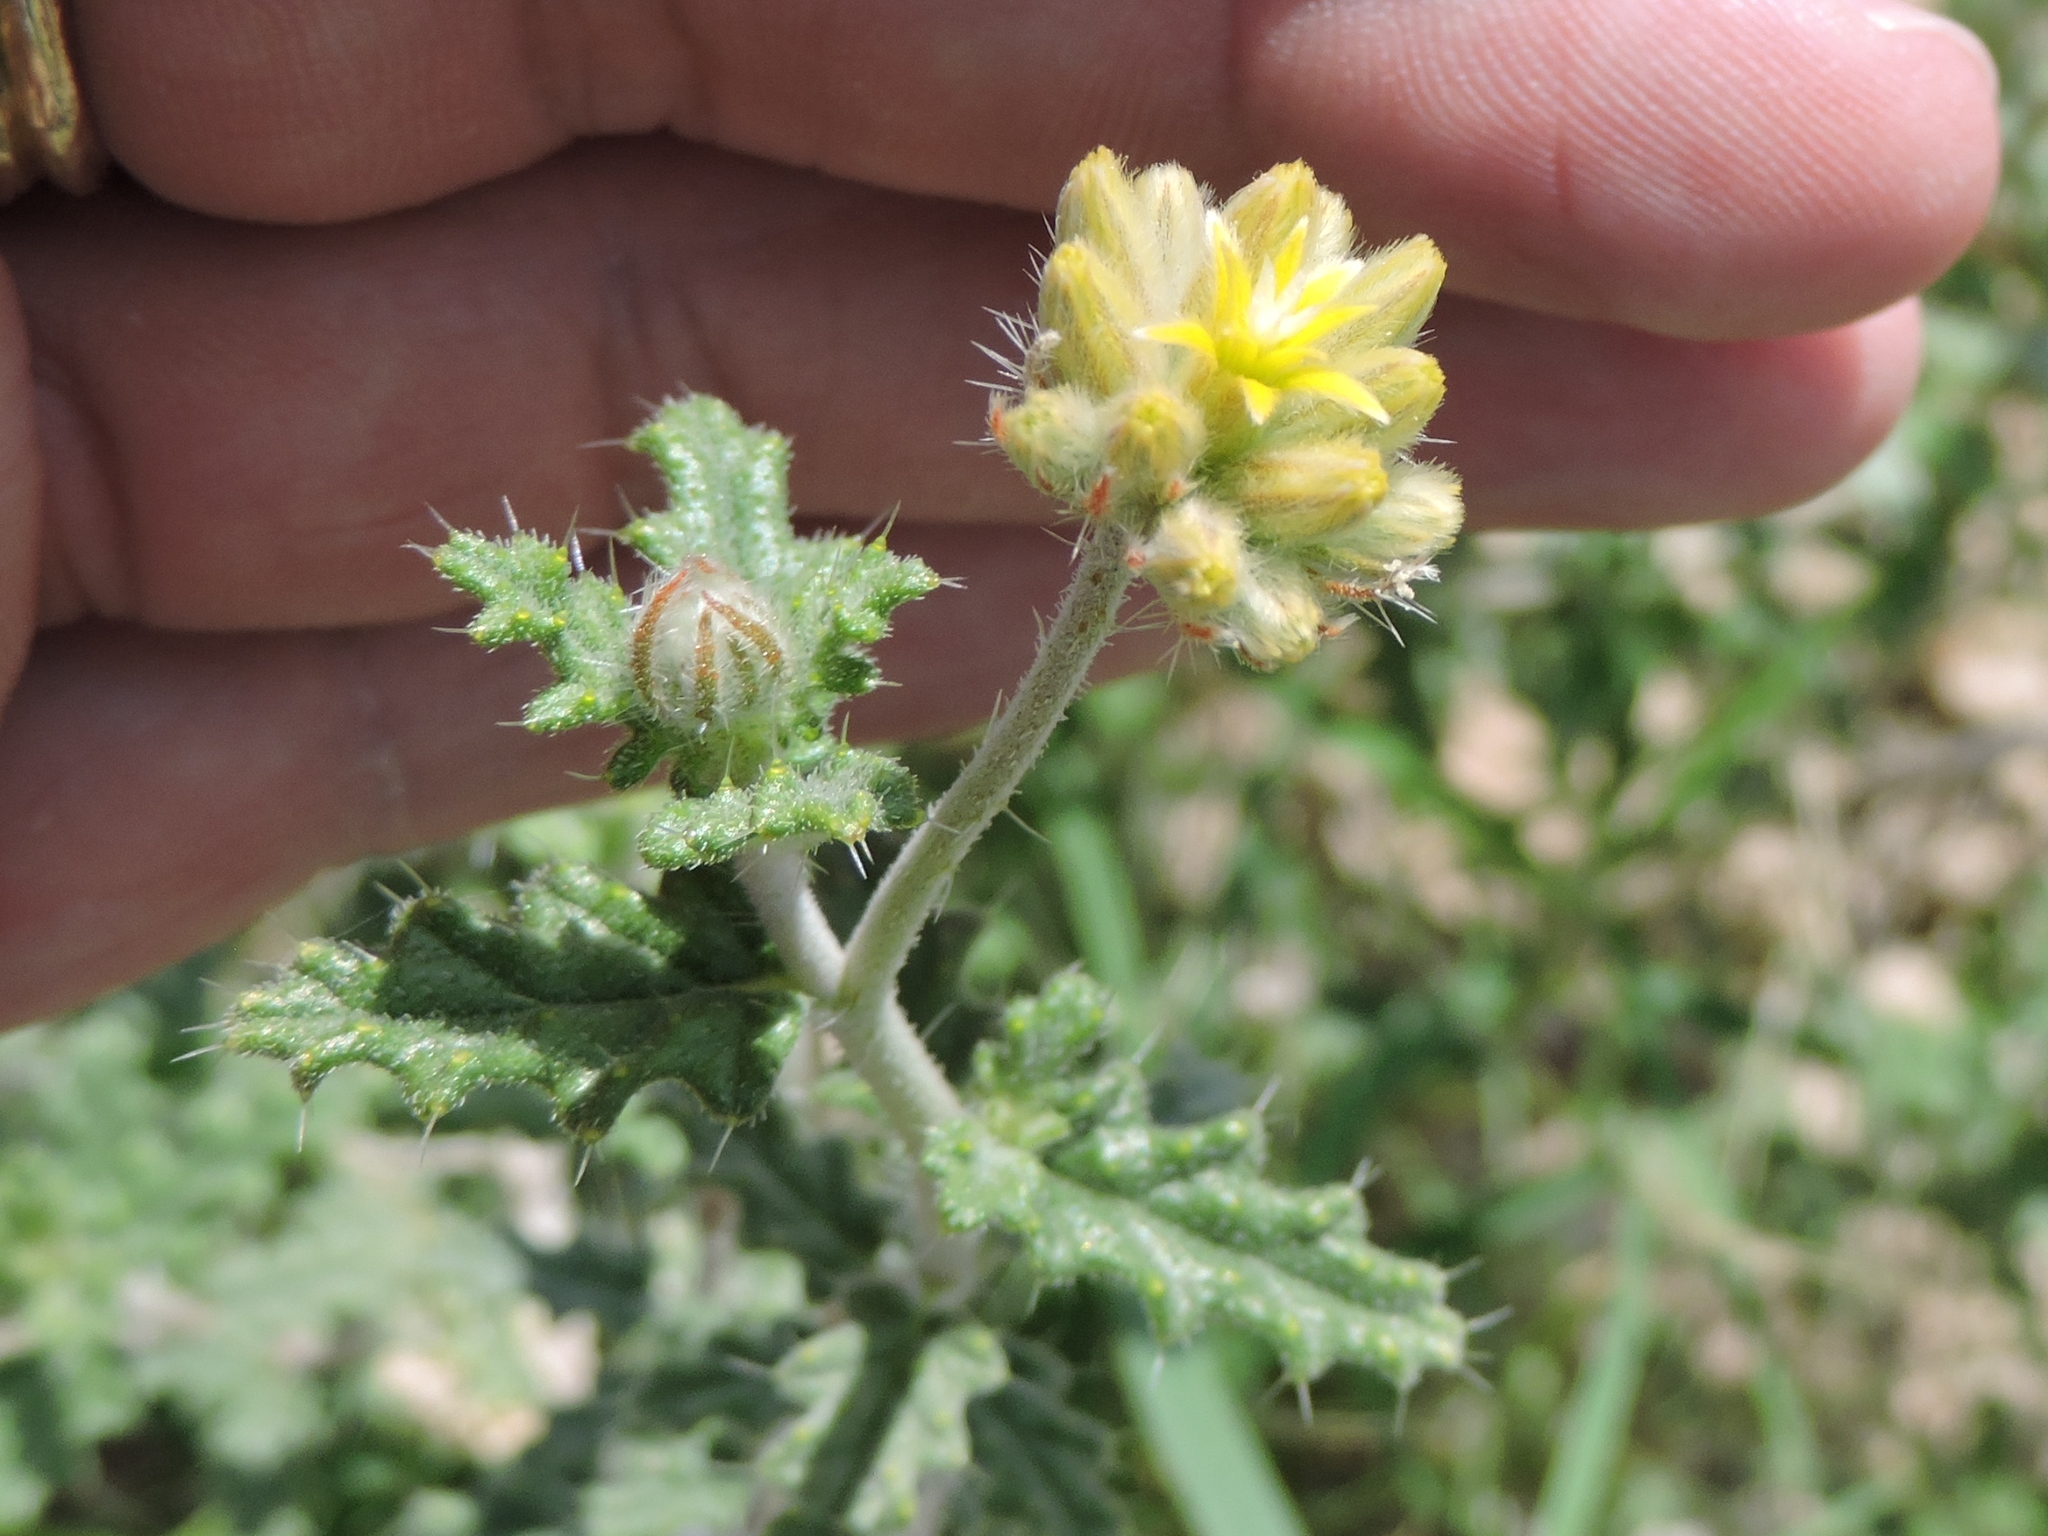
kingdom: Plantae
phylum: Tracheophyta
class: Magnoliopsida
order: Cornales
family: Loasaceae
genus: Cevallia
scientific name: Cevallia sinuata
